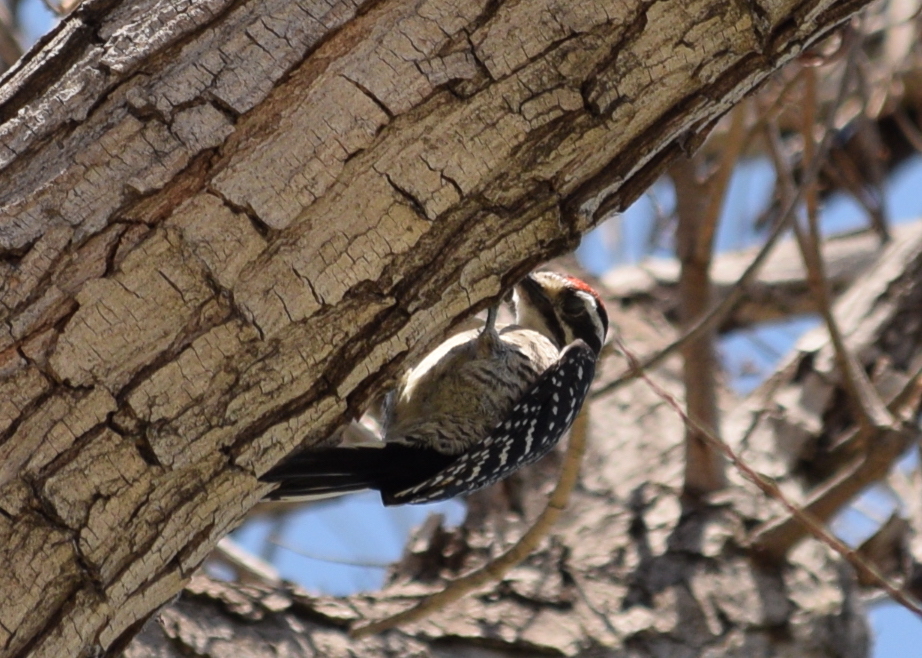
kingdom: Animalia
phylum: Chordata
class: Aves
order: Piciformes
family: Picidae
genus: Dryobates
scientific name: Dryobates nuttallii
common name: Nuttall's woodpecker
